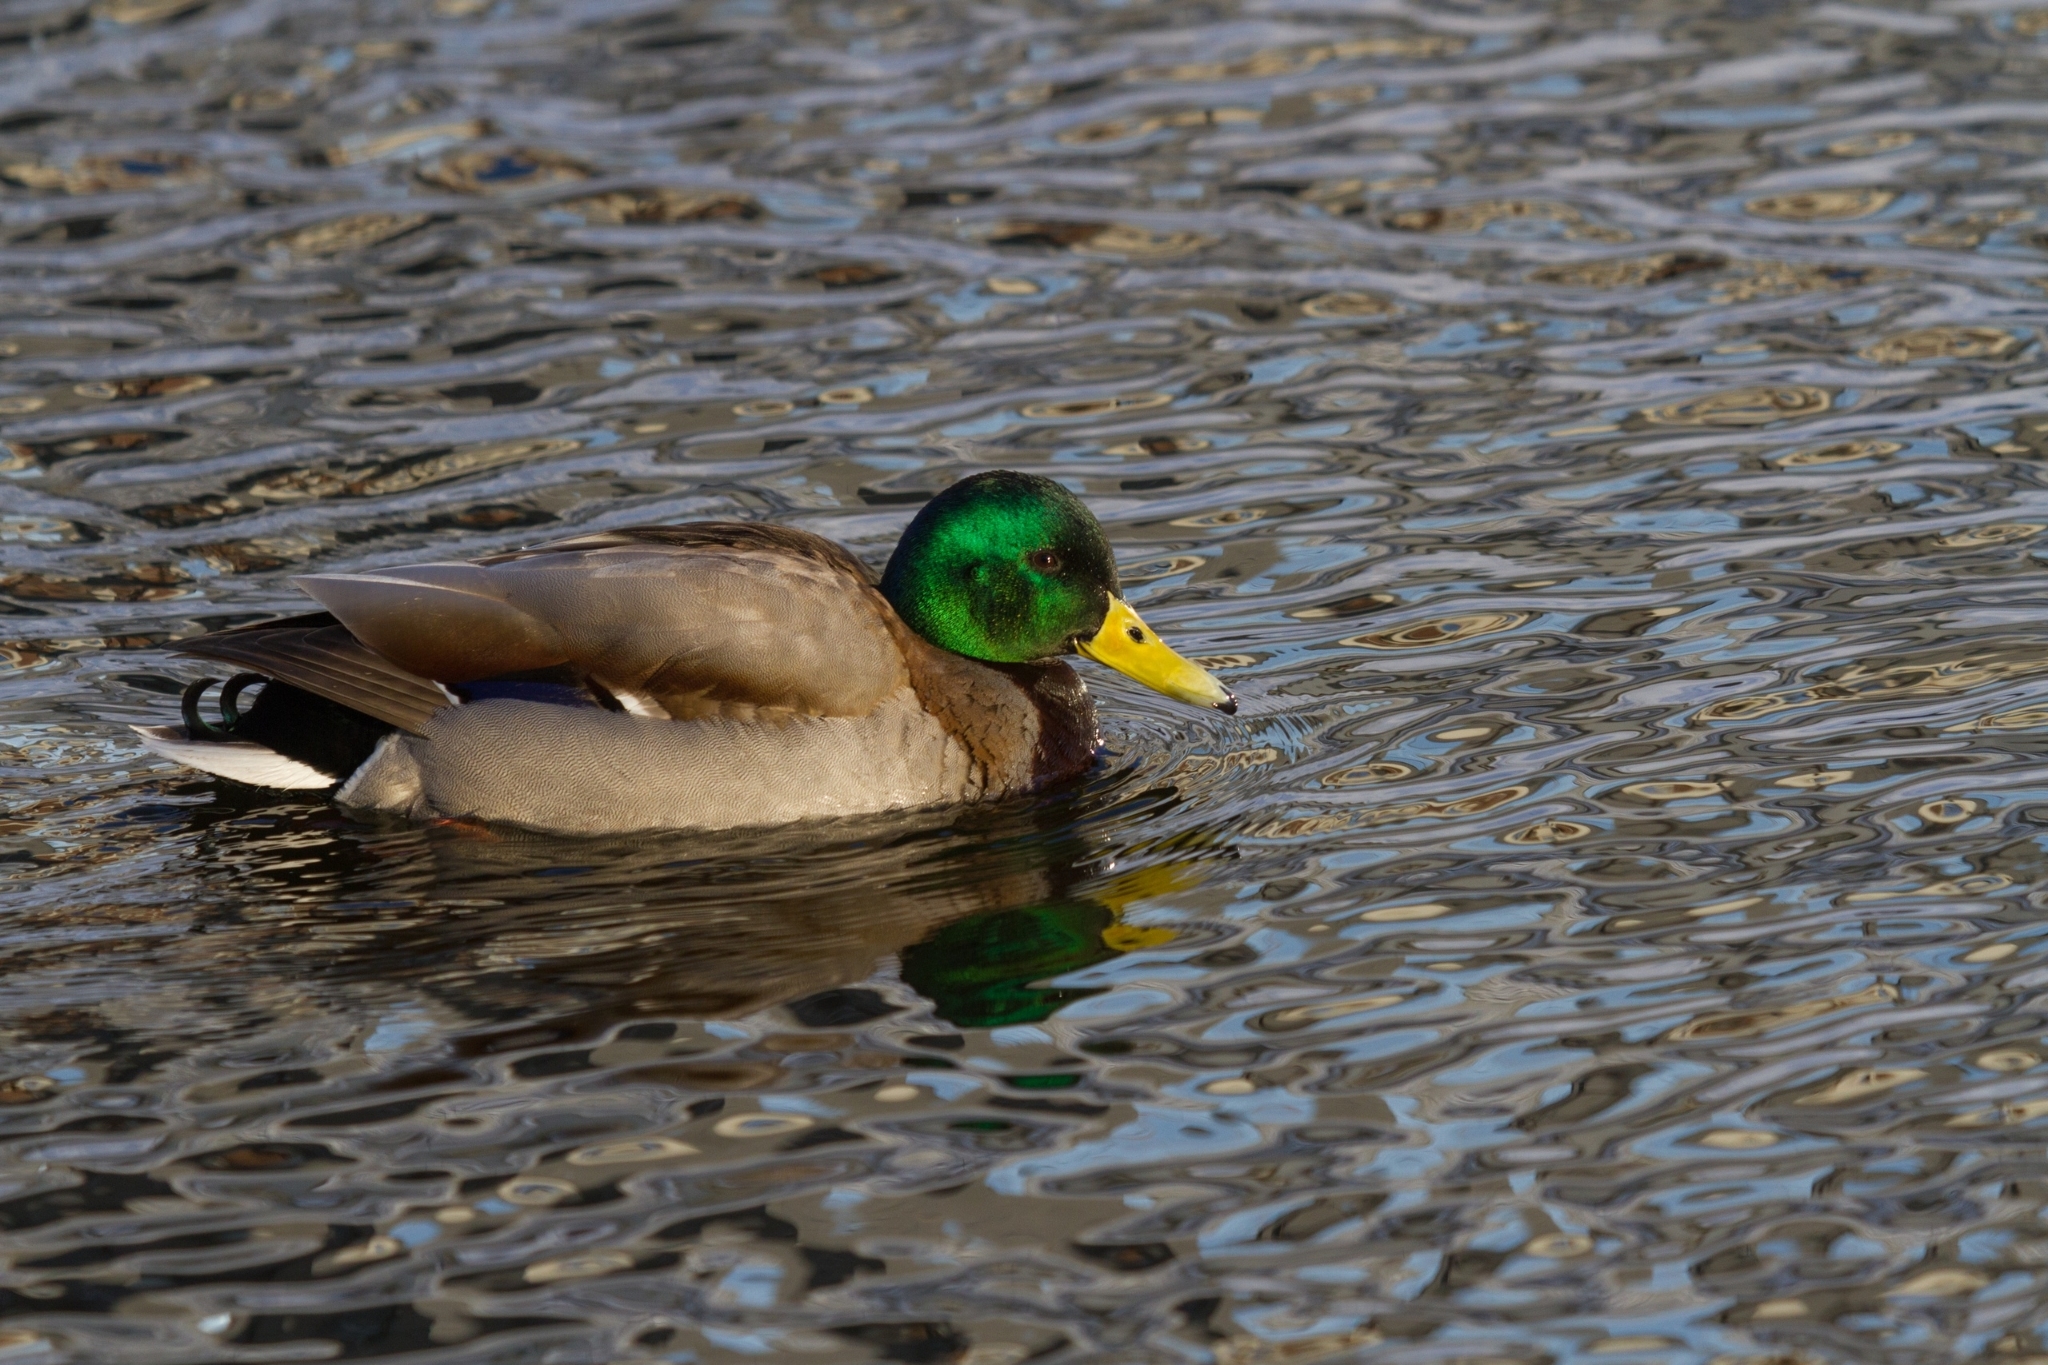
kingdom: Animalia
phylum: Chordata
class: Aves
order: Anseriformes
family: Anatidae
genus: Anas
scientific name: Anas platyrhynchos
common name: Mallard
